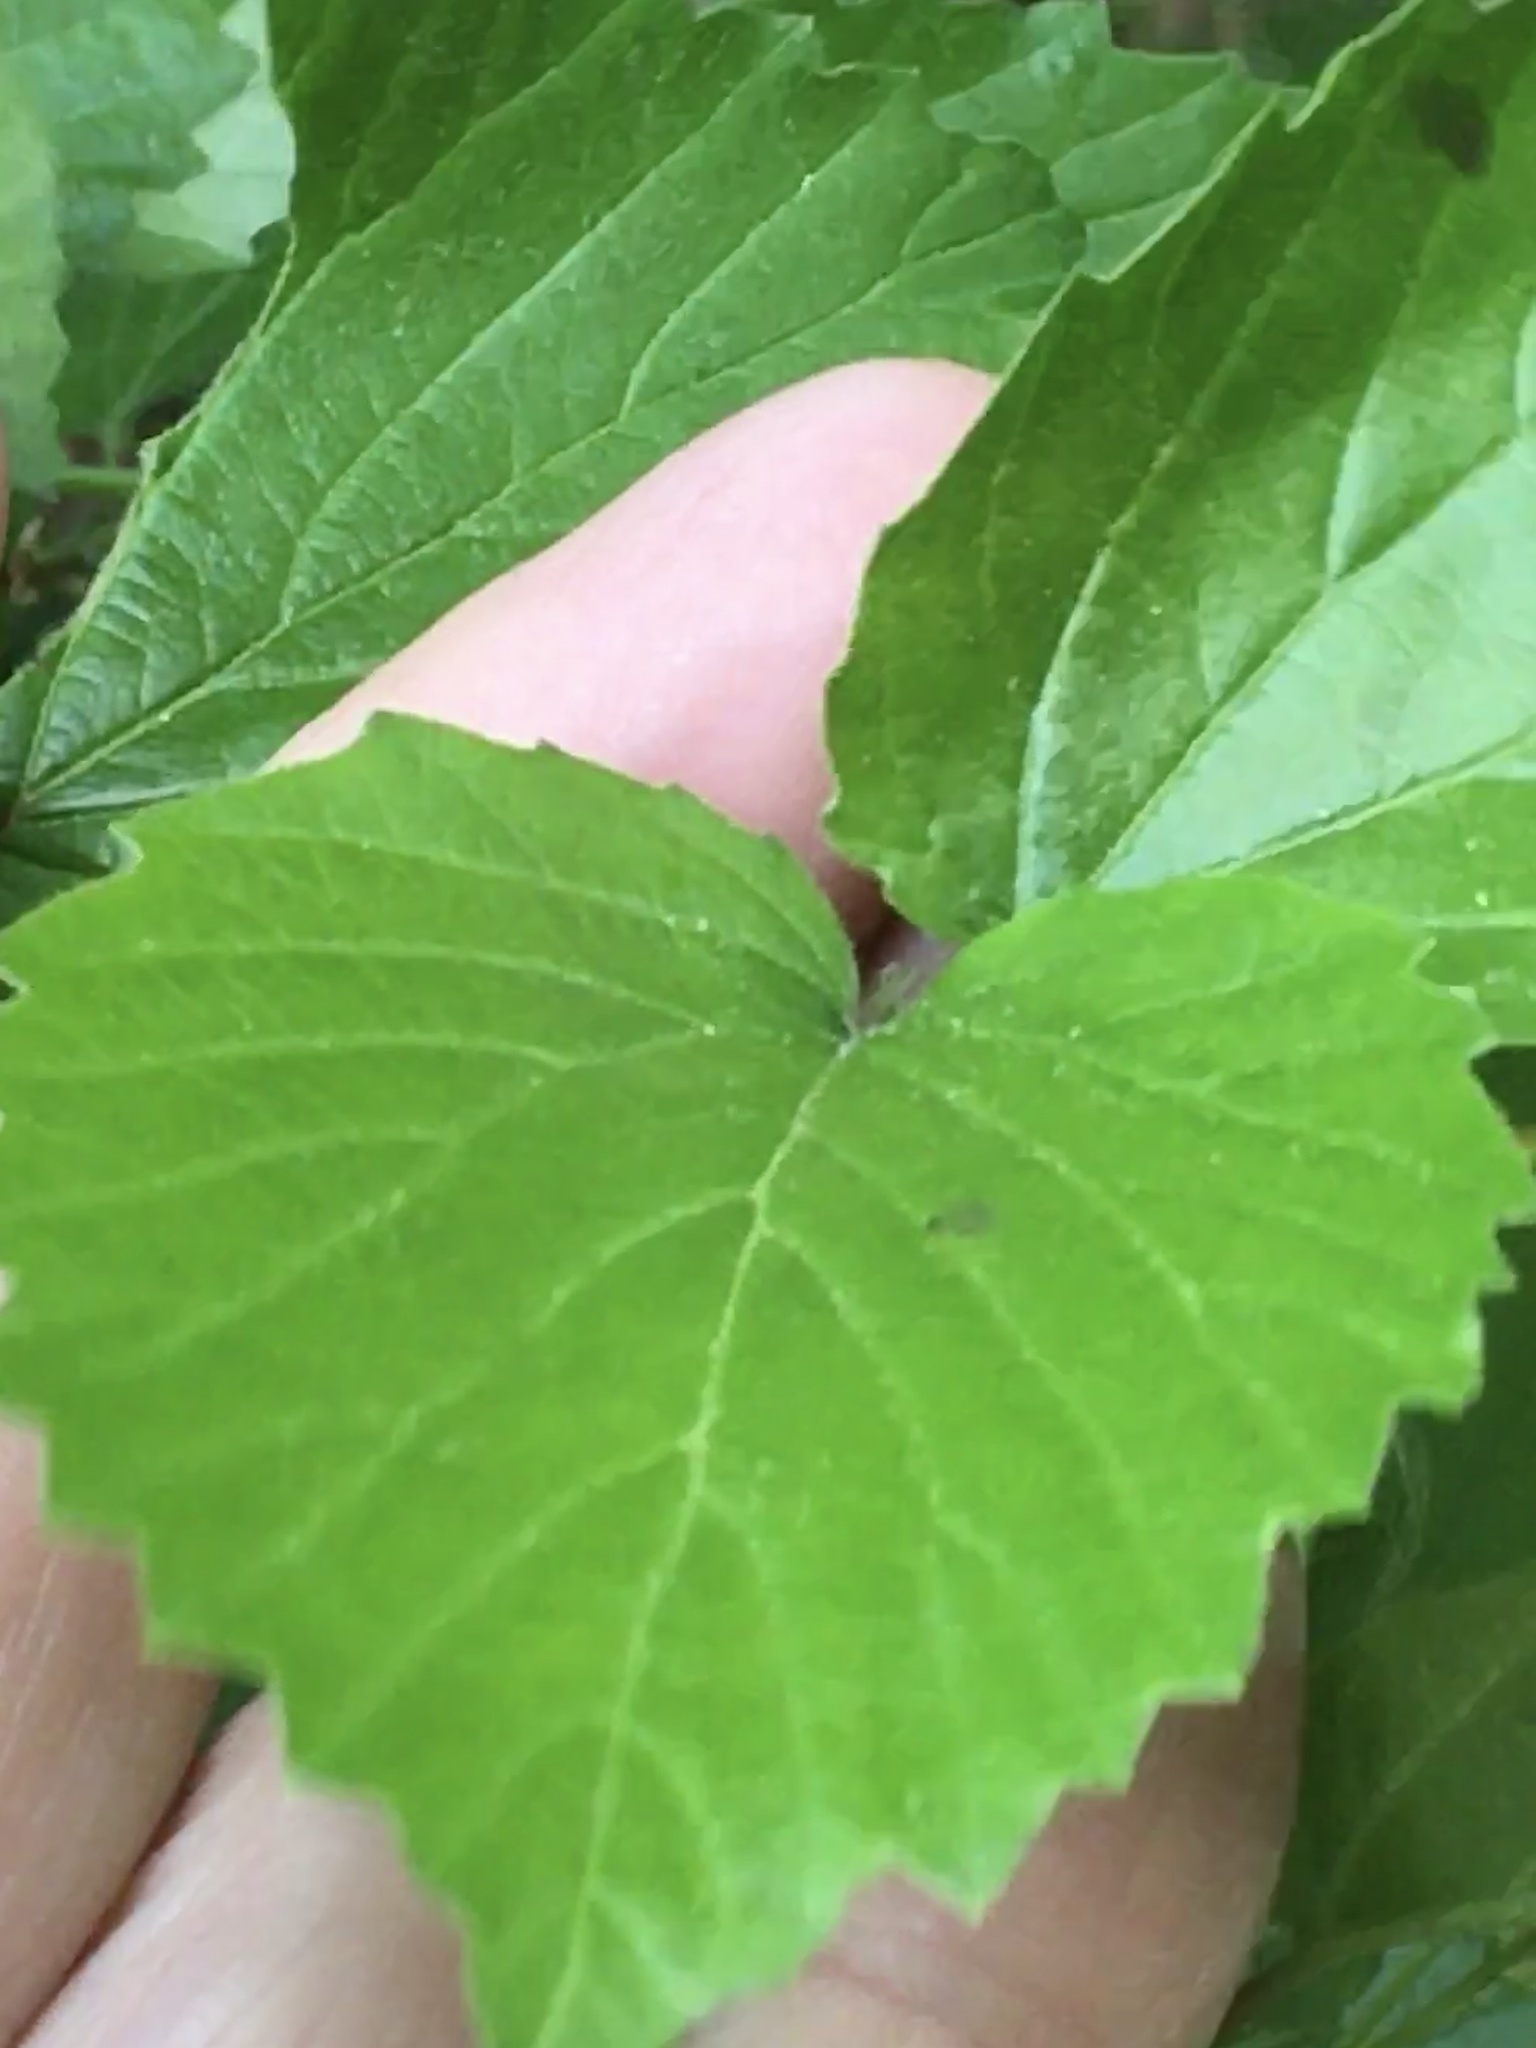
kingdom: Plantae
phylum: Tracheophyta
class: Magnoliopsida
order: Dipsacales
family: Viburnaceae
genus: Viburnum
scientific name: Viburnum rafinesqueanum
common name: Downy arrow-wood
